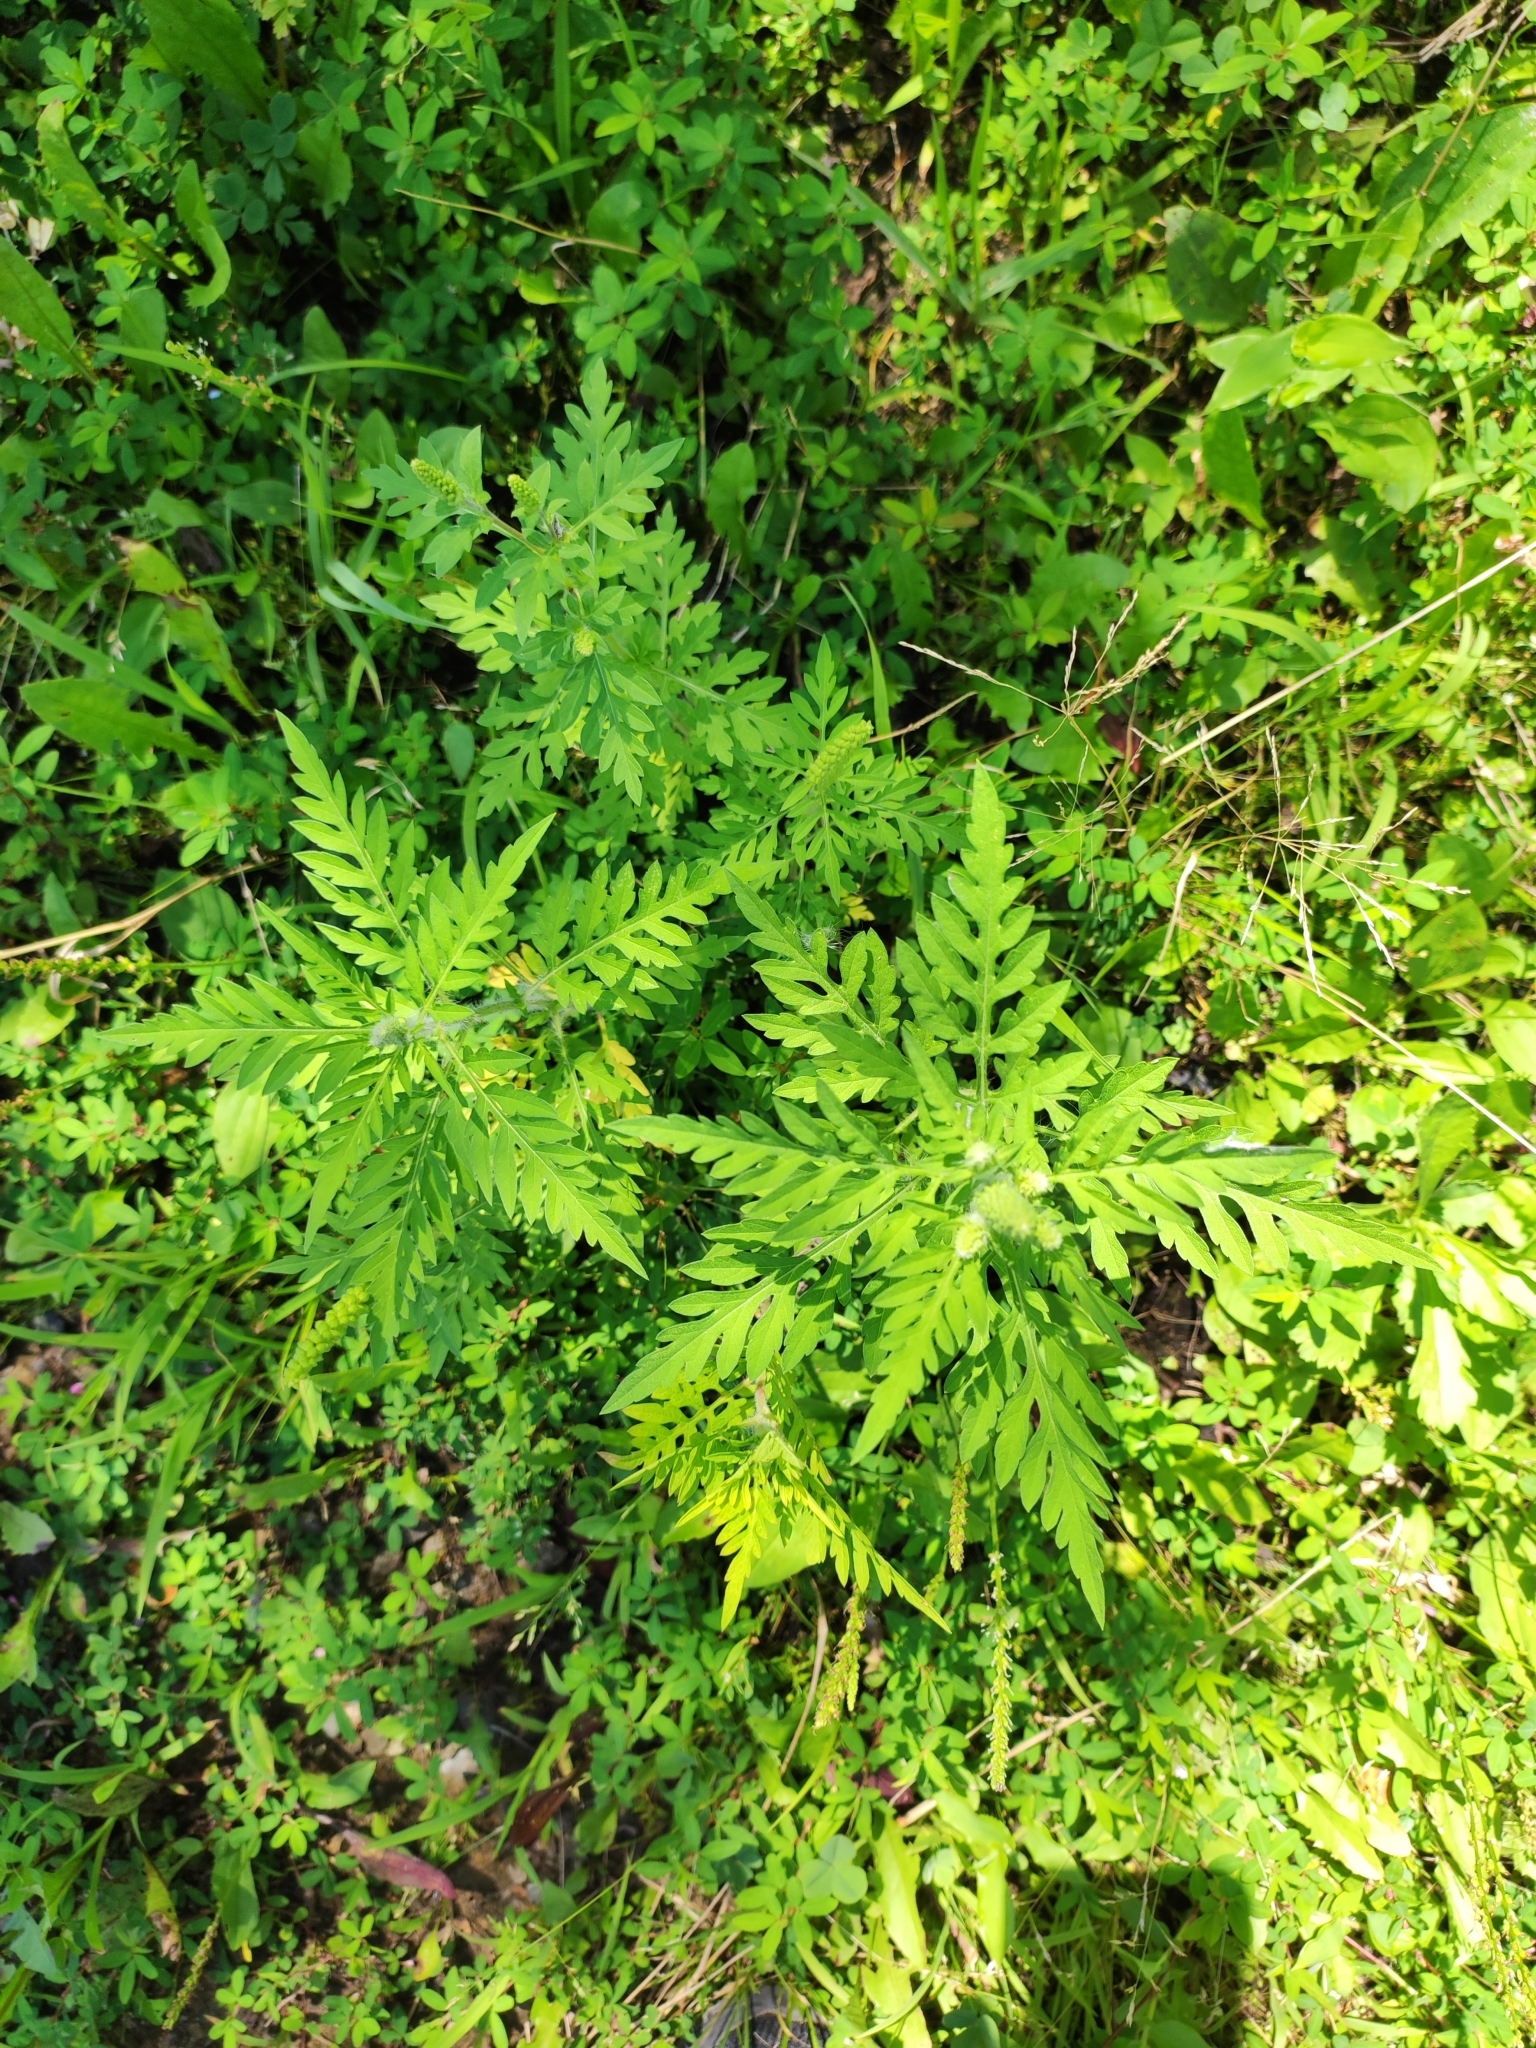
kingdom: Plantae
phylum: Tracheophyta
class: Magnoliopsida
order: Asterales
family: Asteraceae
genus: Ambrosia
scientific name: Ambrosia artemisiifolia
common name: Annual ragweed
